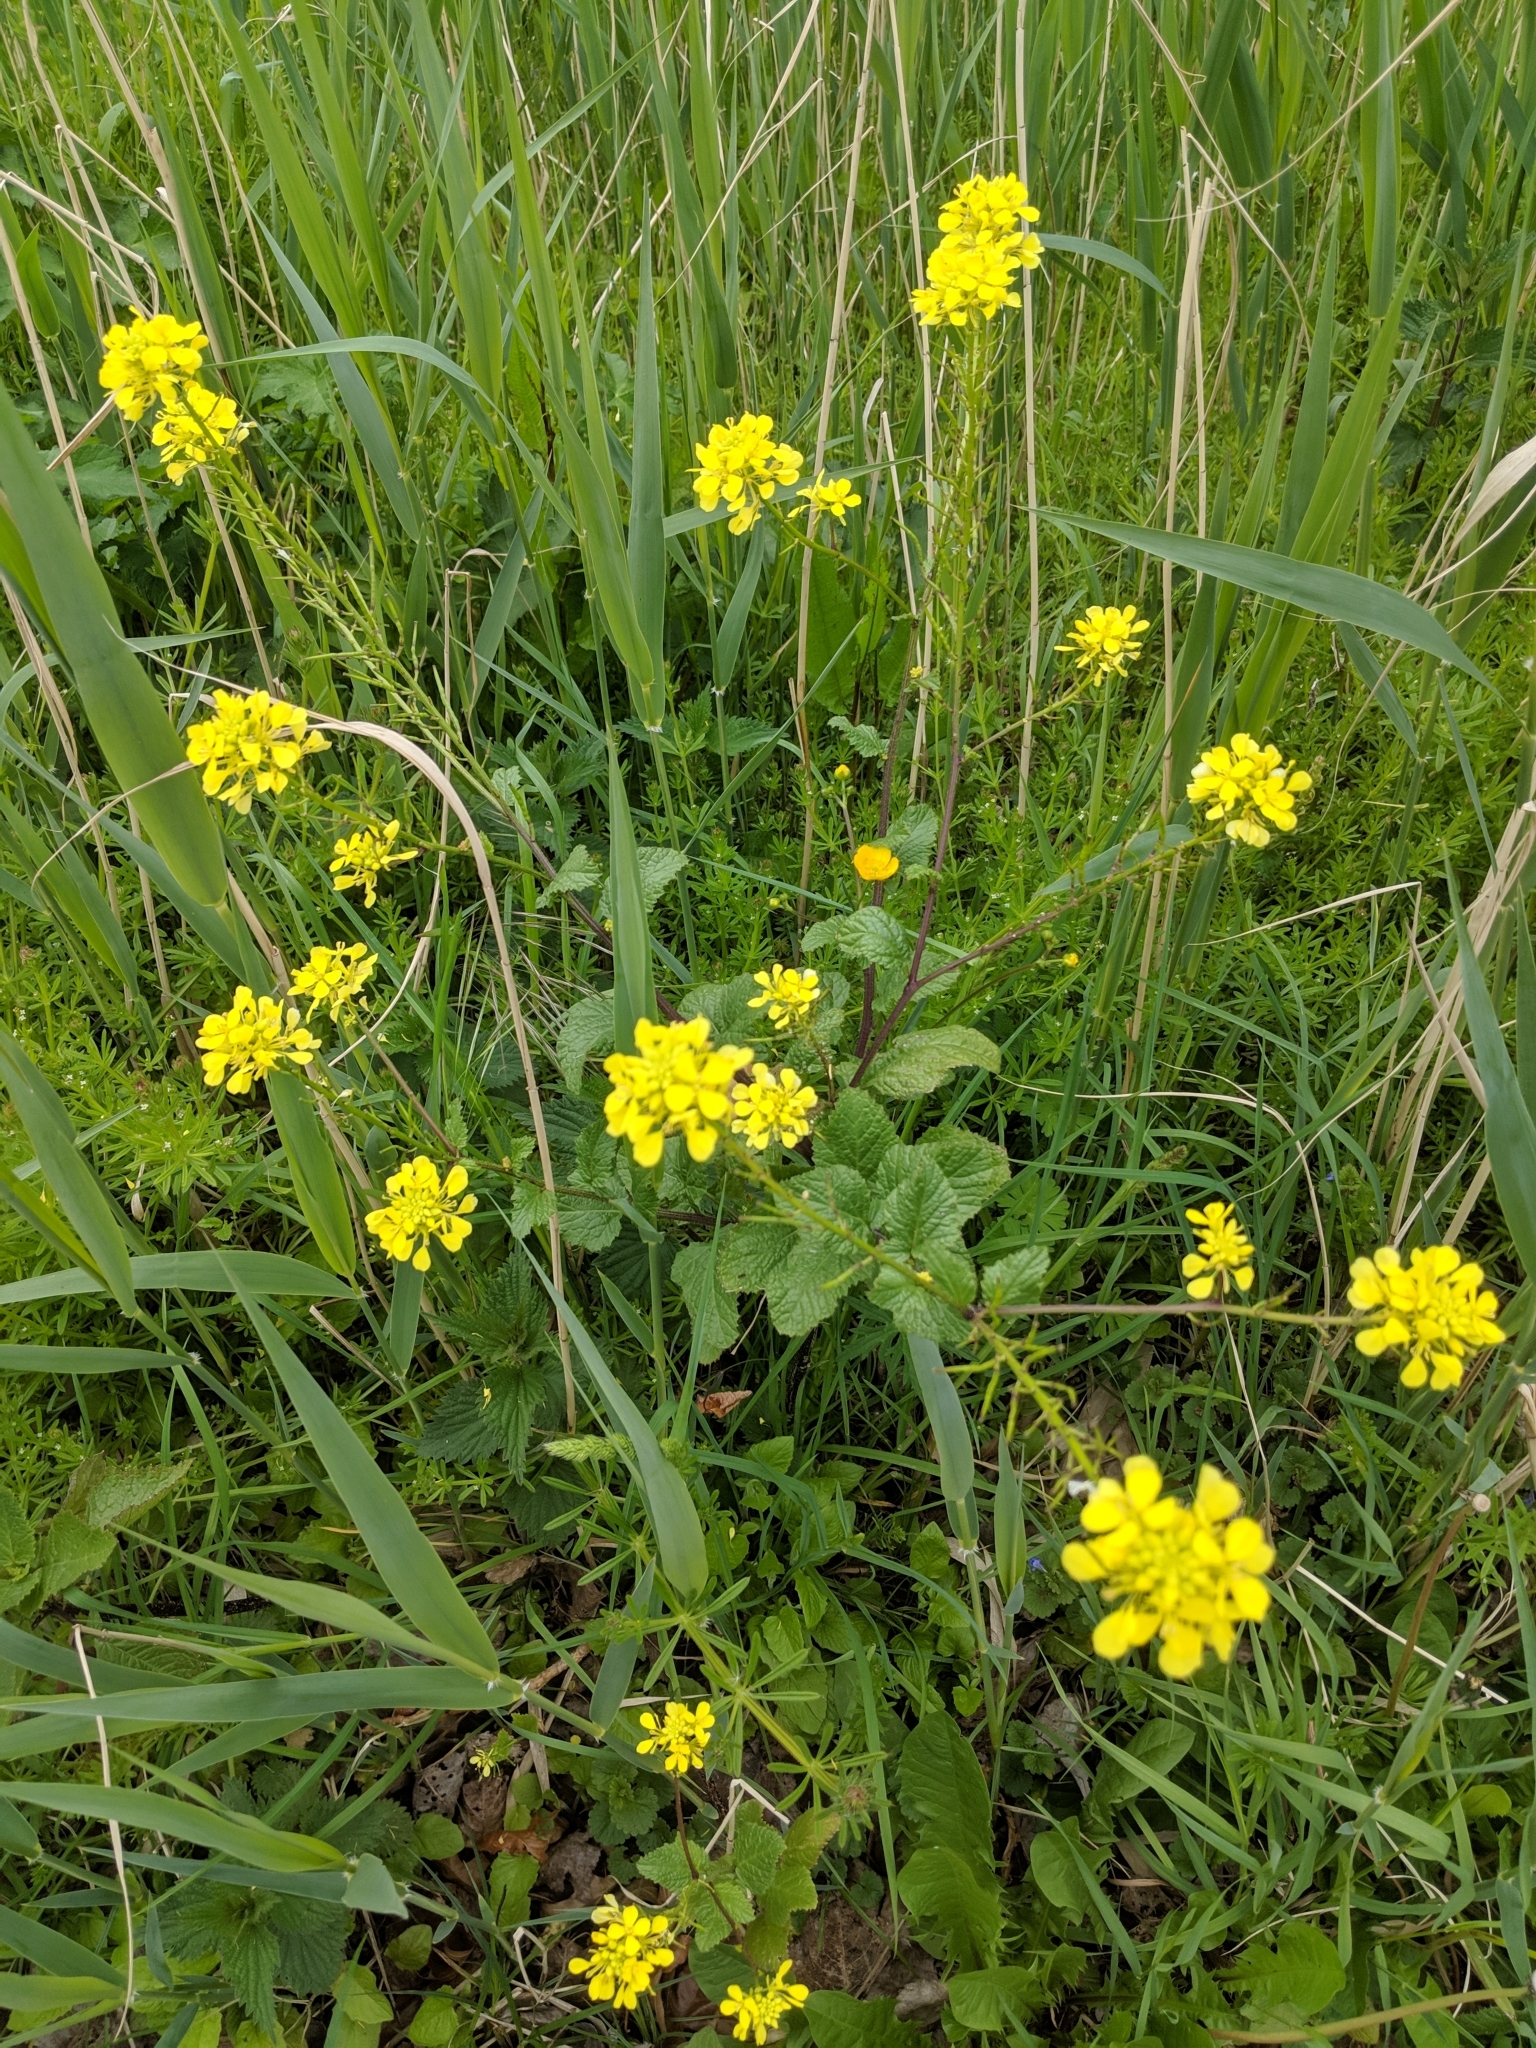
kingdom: Plantae
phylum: Tracheophyta
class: Magnoliopsida
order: Brassicales
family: Brassicaceae
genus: Sinapis
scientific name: Sinapis arvensis
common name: Charlock
